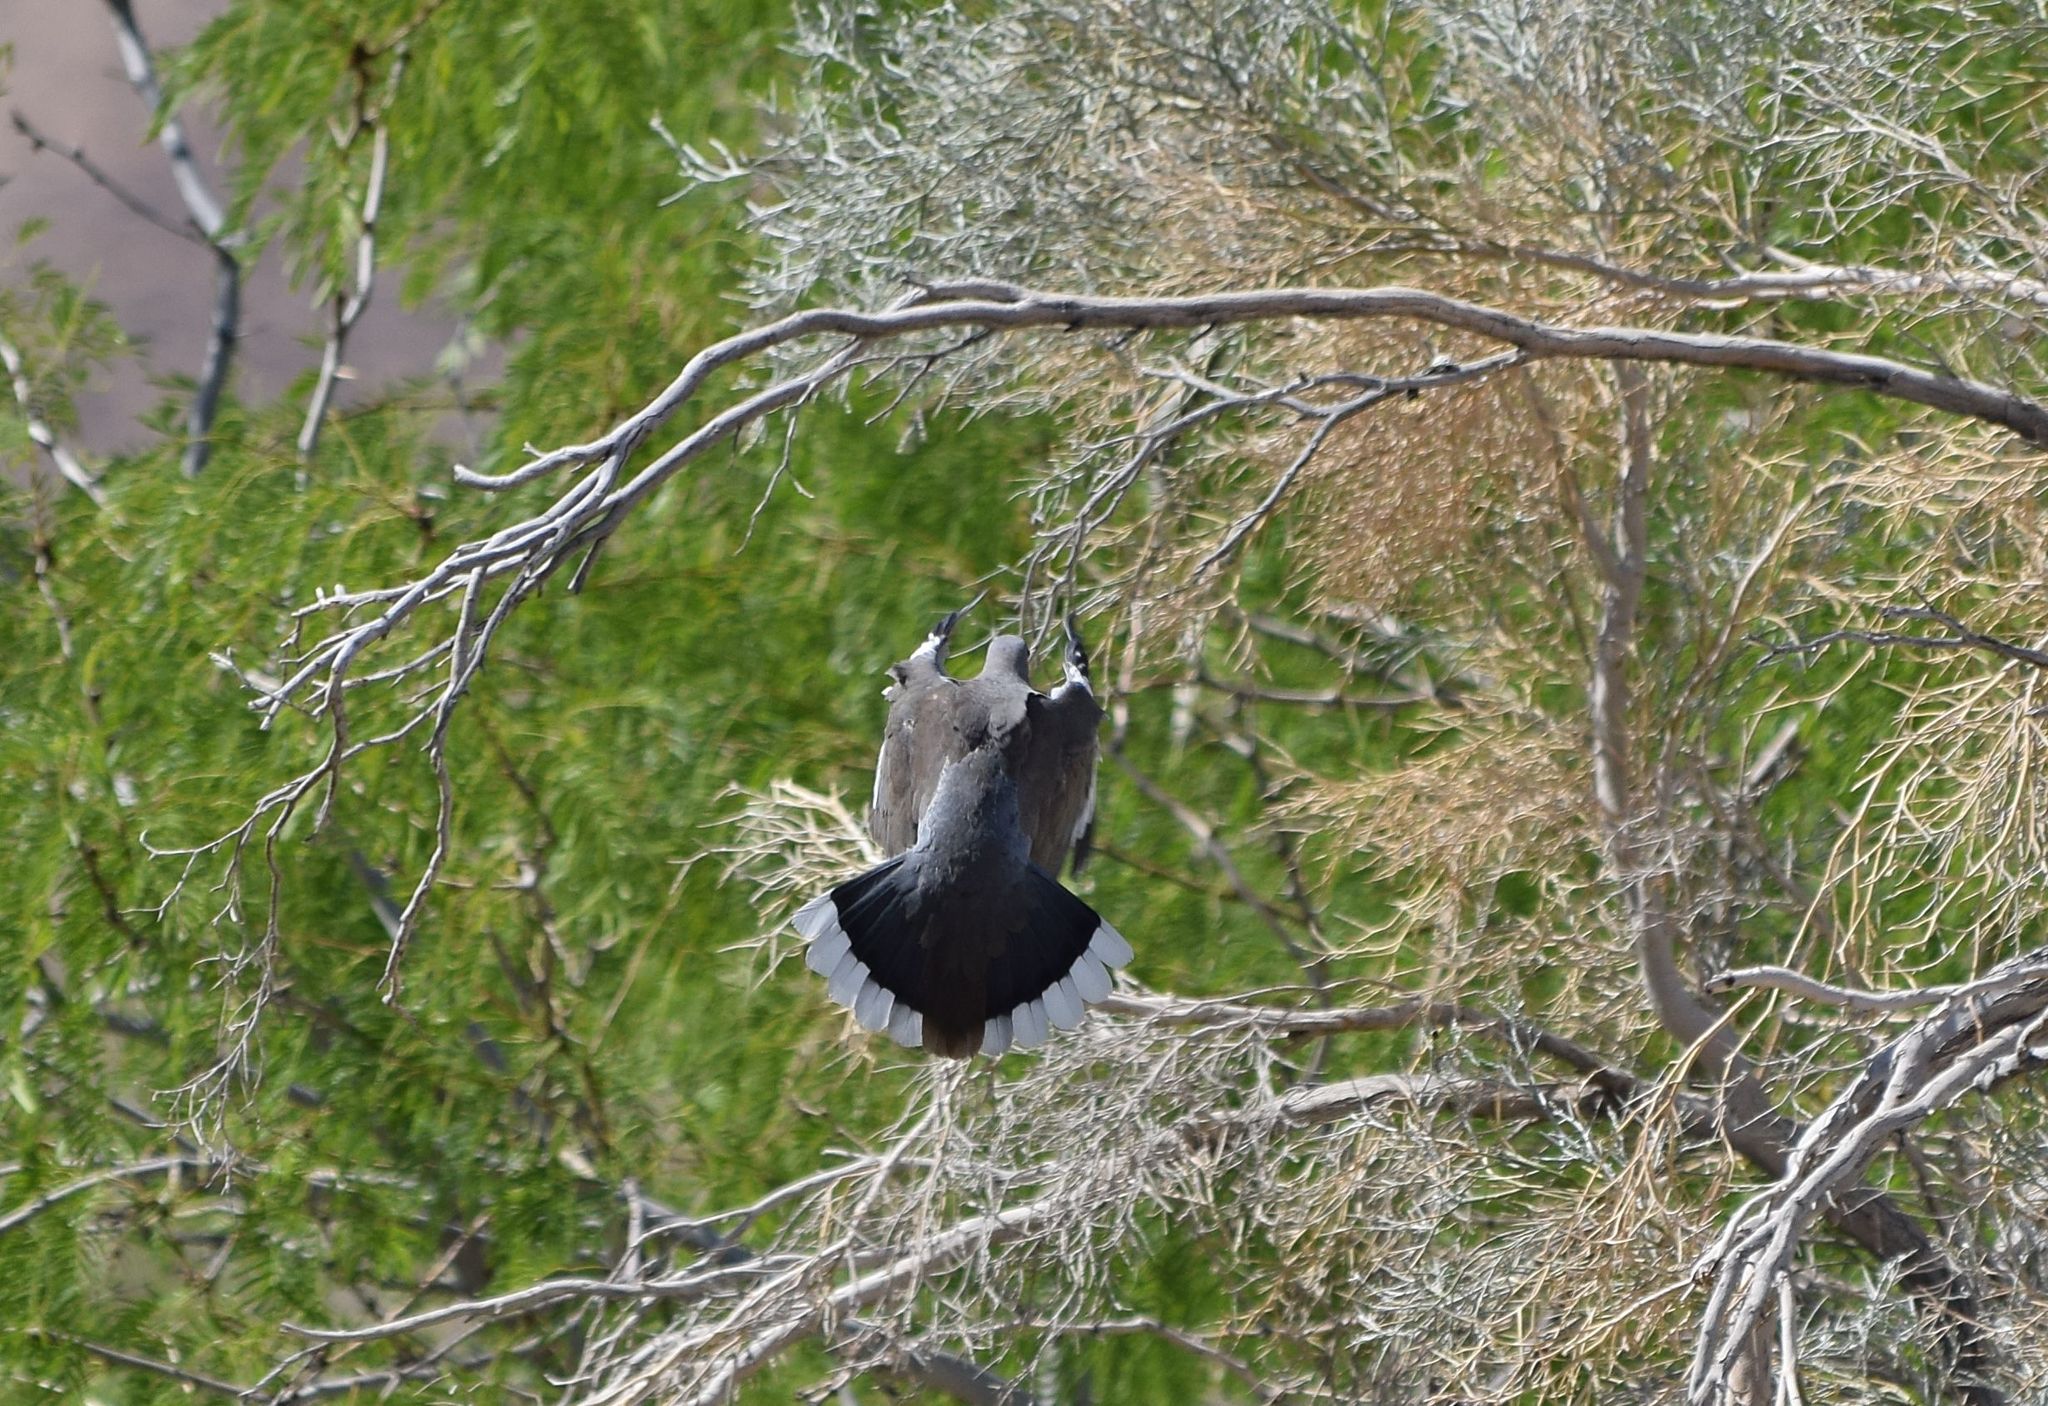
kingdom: Animalia
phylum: Chordata
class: Aves
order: Columbiformes
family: Columbidae
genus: Zenaida
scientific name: Zenaida asiatica
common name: White-winged dove
